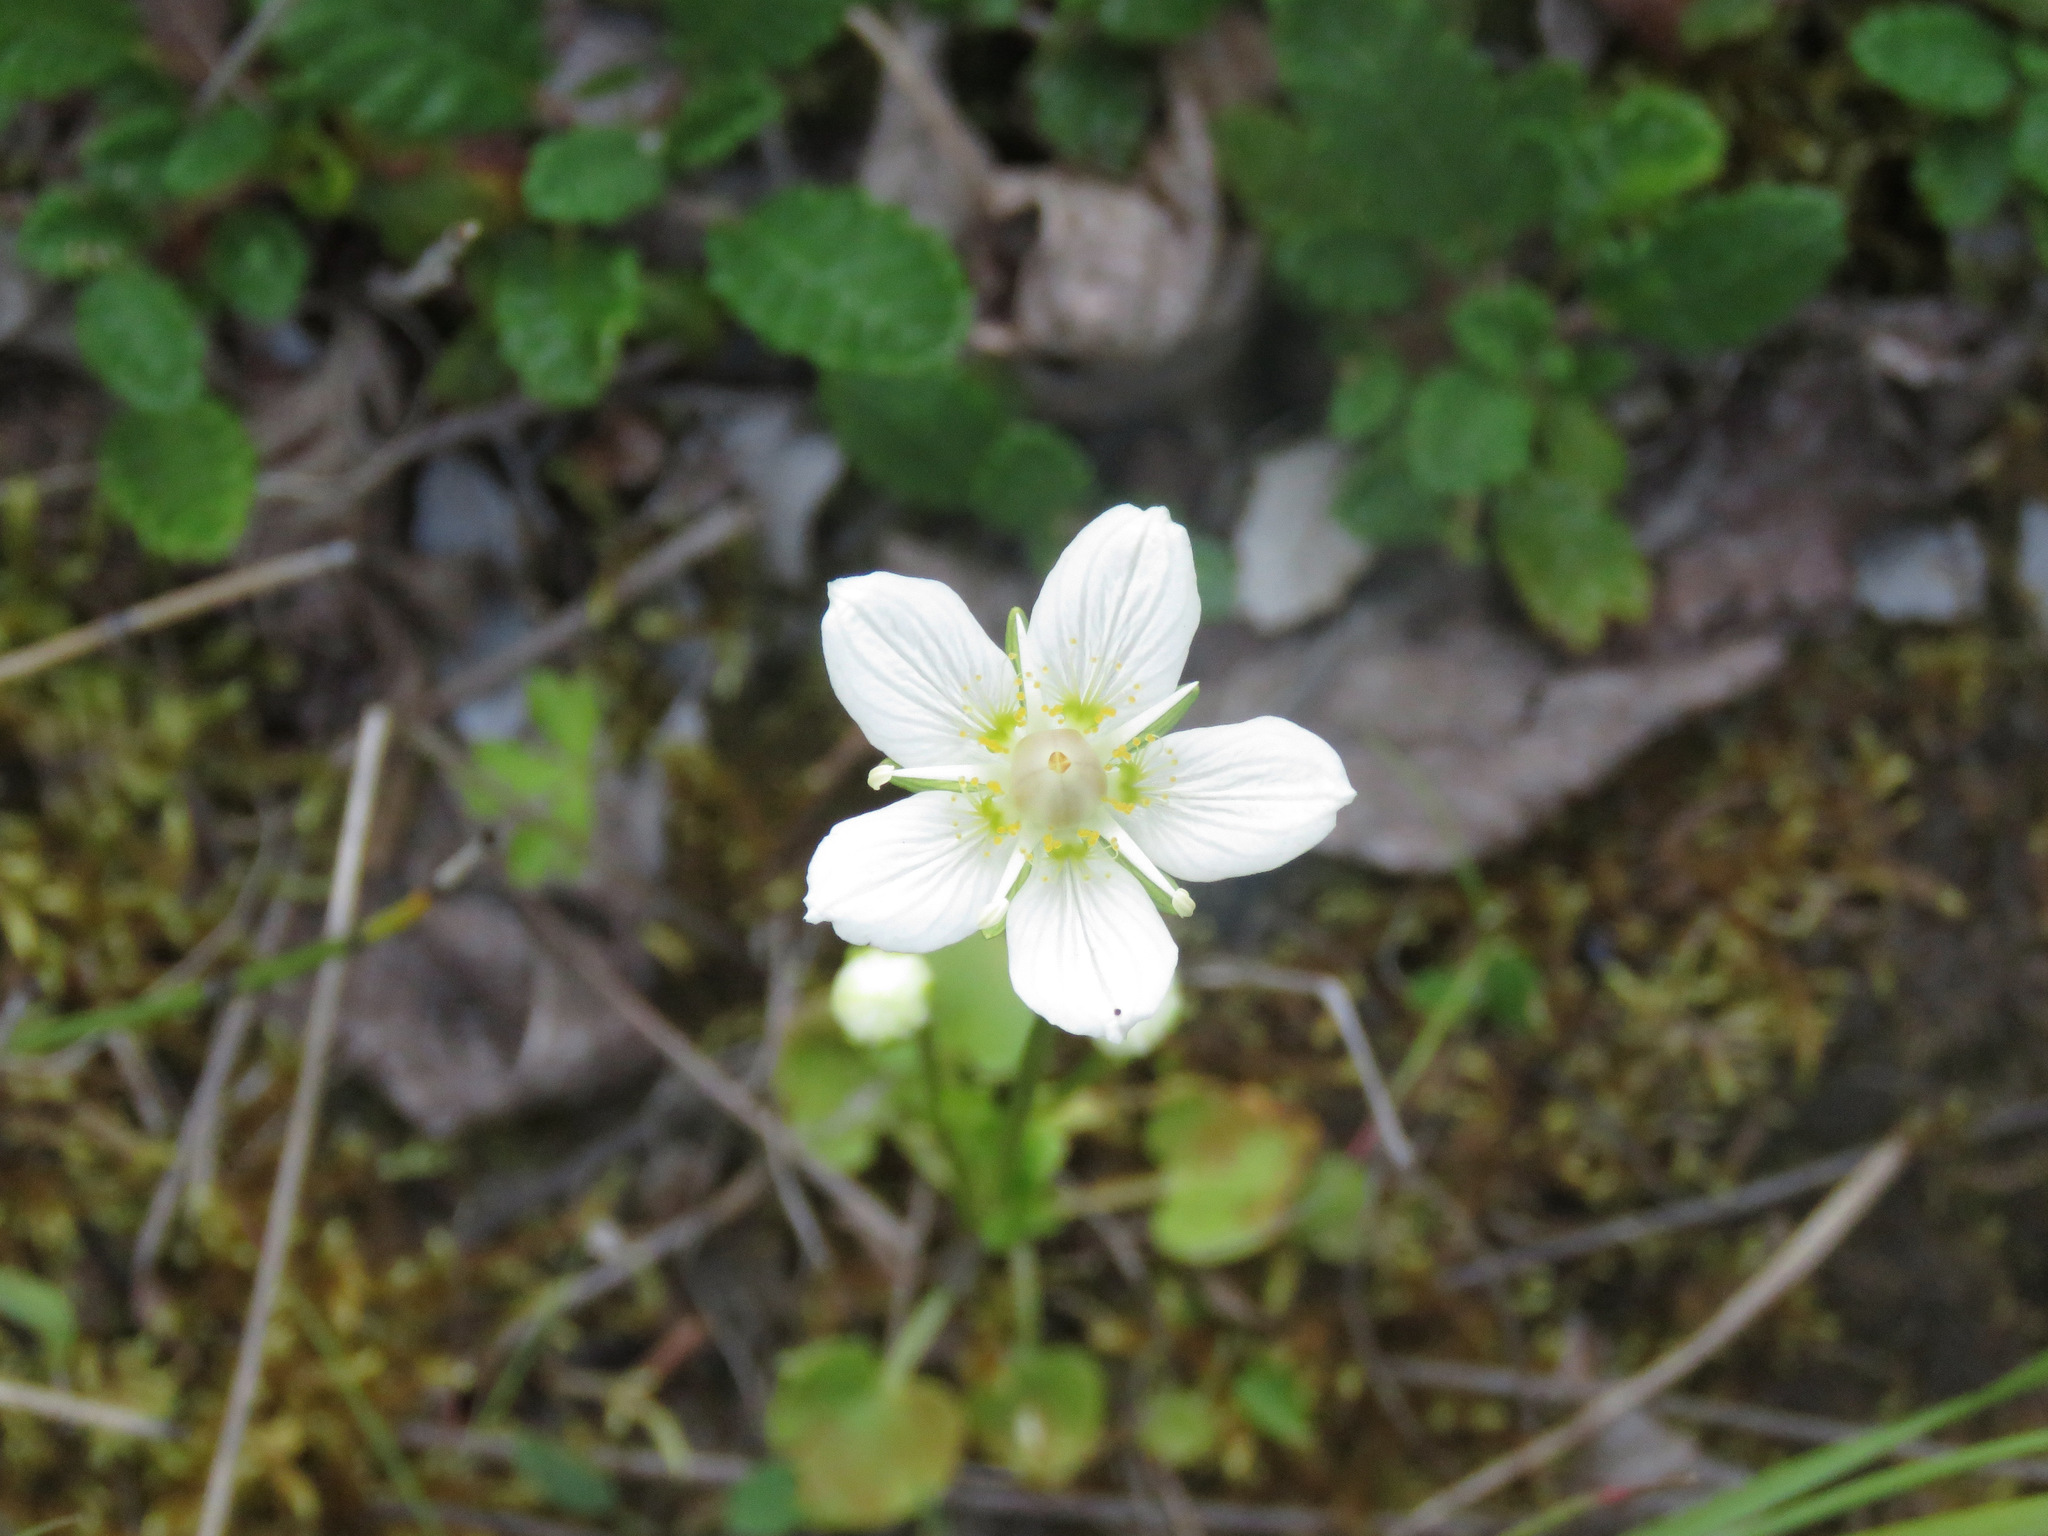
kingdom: Plantae
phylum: Tracheophyta
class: Magnoliopsida
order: Celastrales
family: Parnassiaceae
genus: Parnassia
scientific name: Parnassia palustris
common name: Grass-of-parnassus
